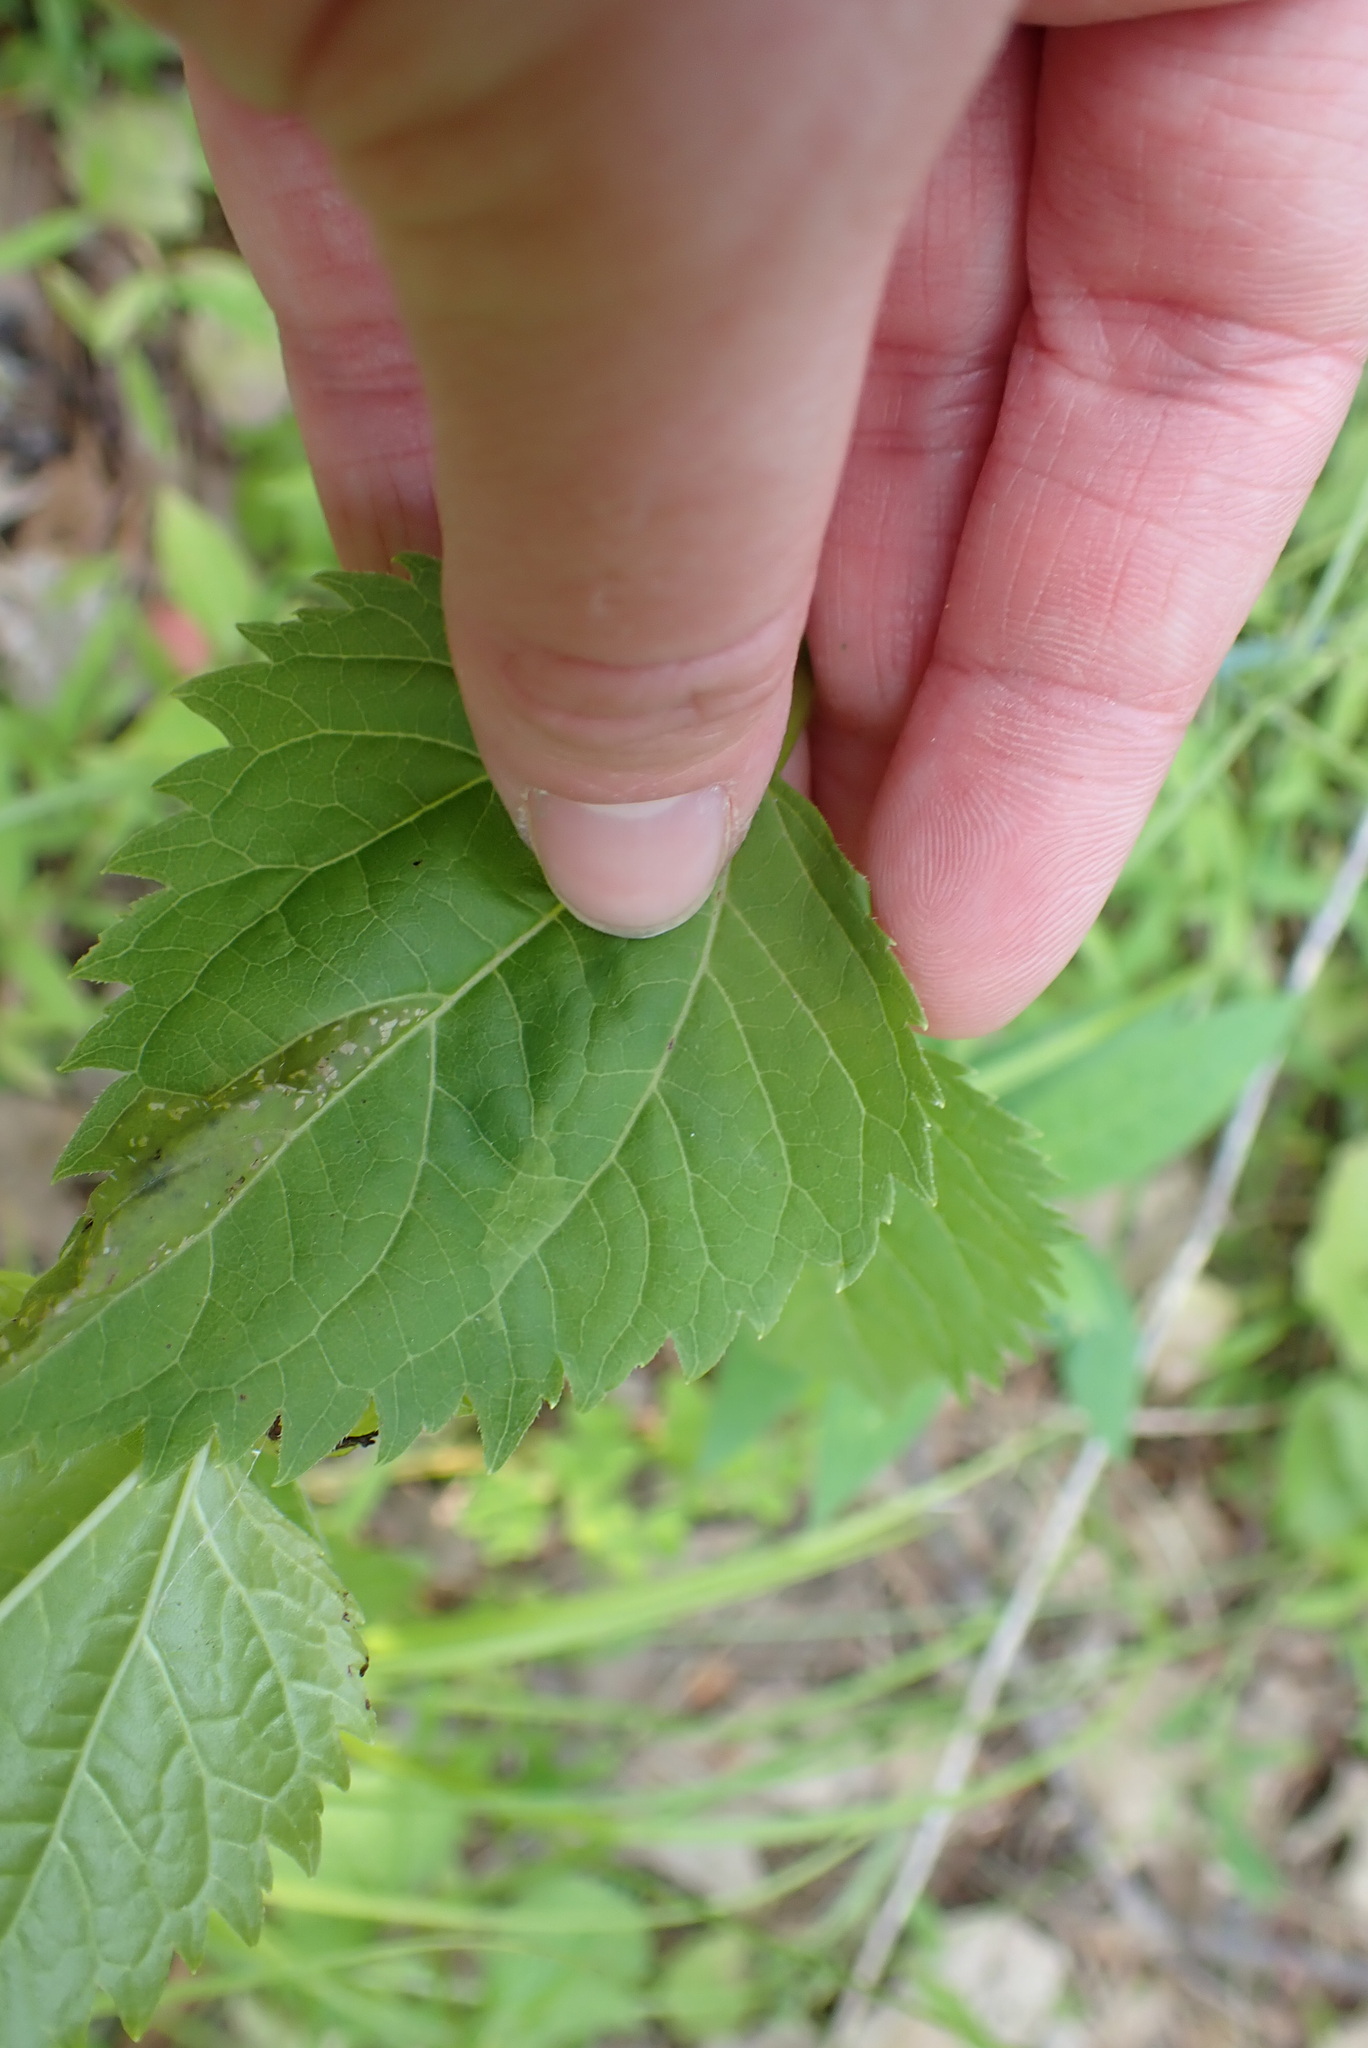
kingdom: Animalia
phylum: Arthropoda
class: Insecta
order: Lepidoptera
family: Gracillariidae
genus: Leucospilapteryx
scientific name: Leucospilapteryx venustella
